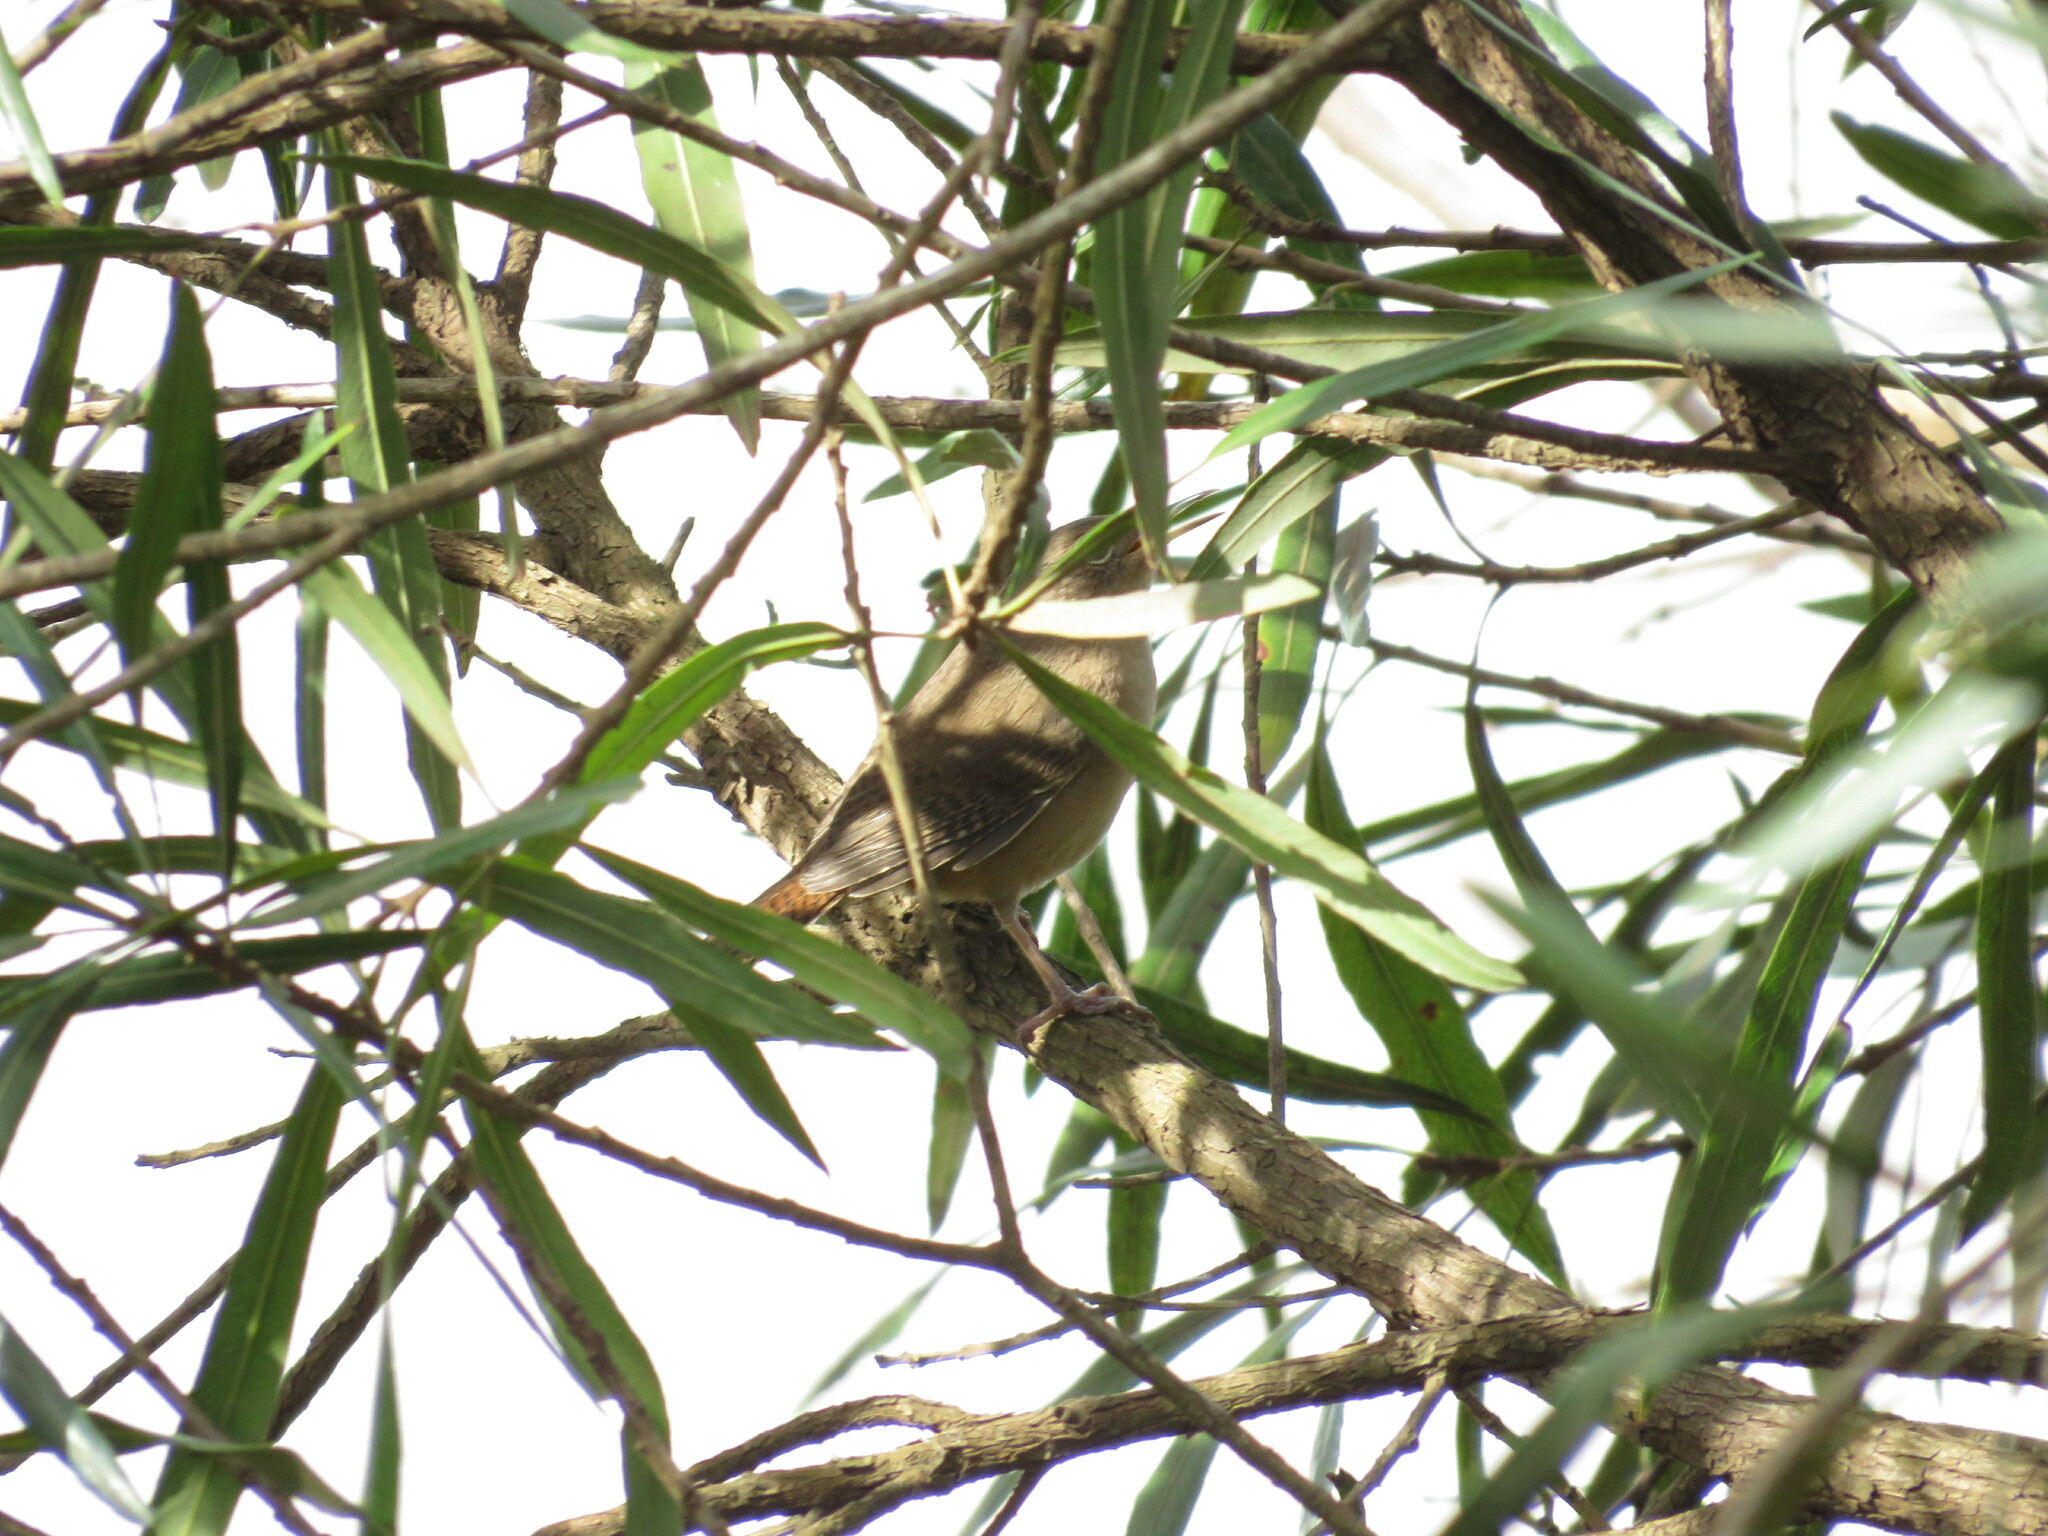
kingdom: Animalia
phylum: Chordata
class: Aves
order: Passeriformes
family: Troglodytidae
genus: Troglodytes
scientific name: Troglodytes aedon
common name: House wren
